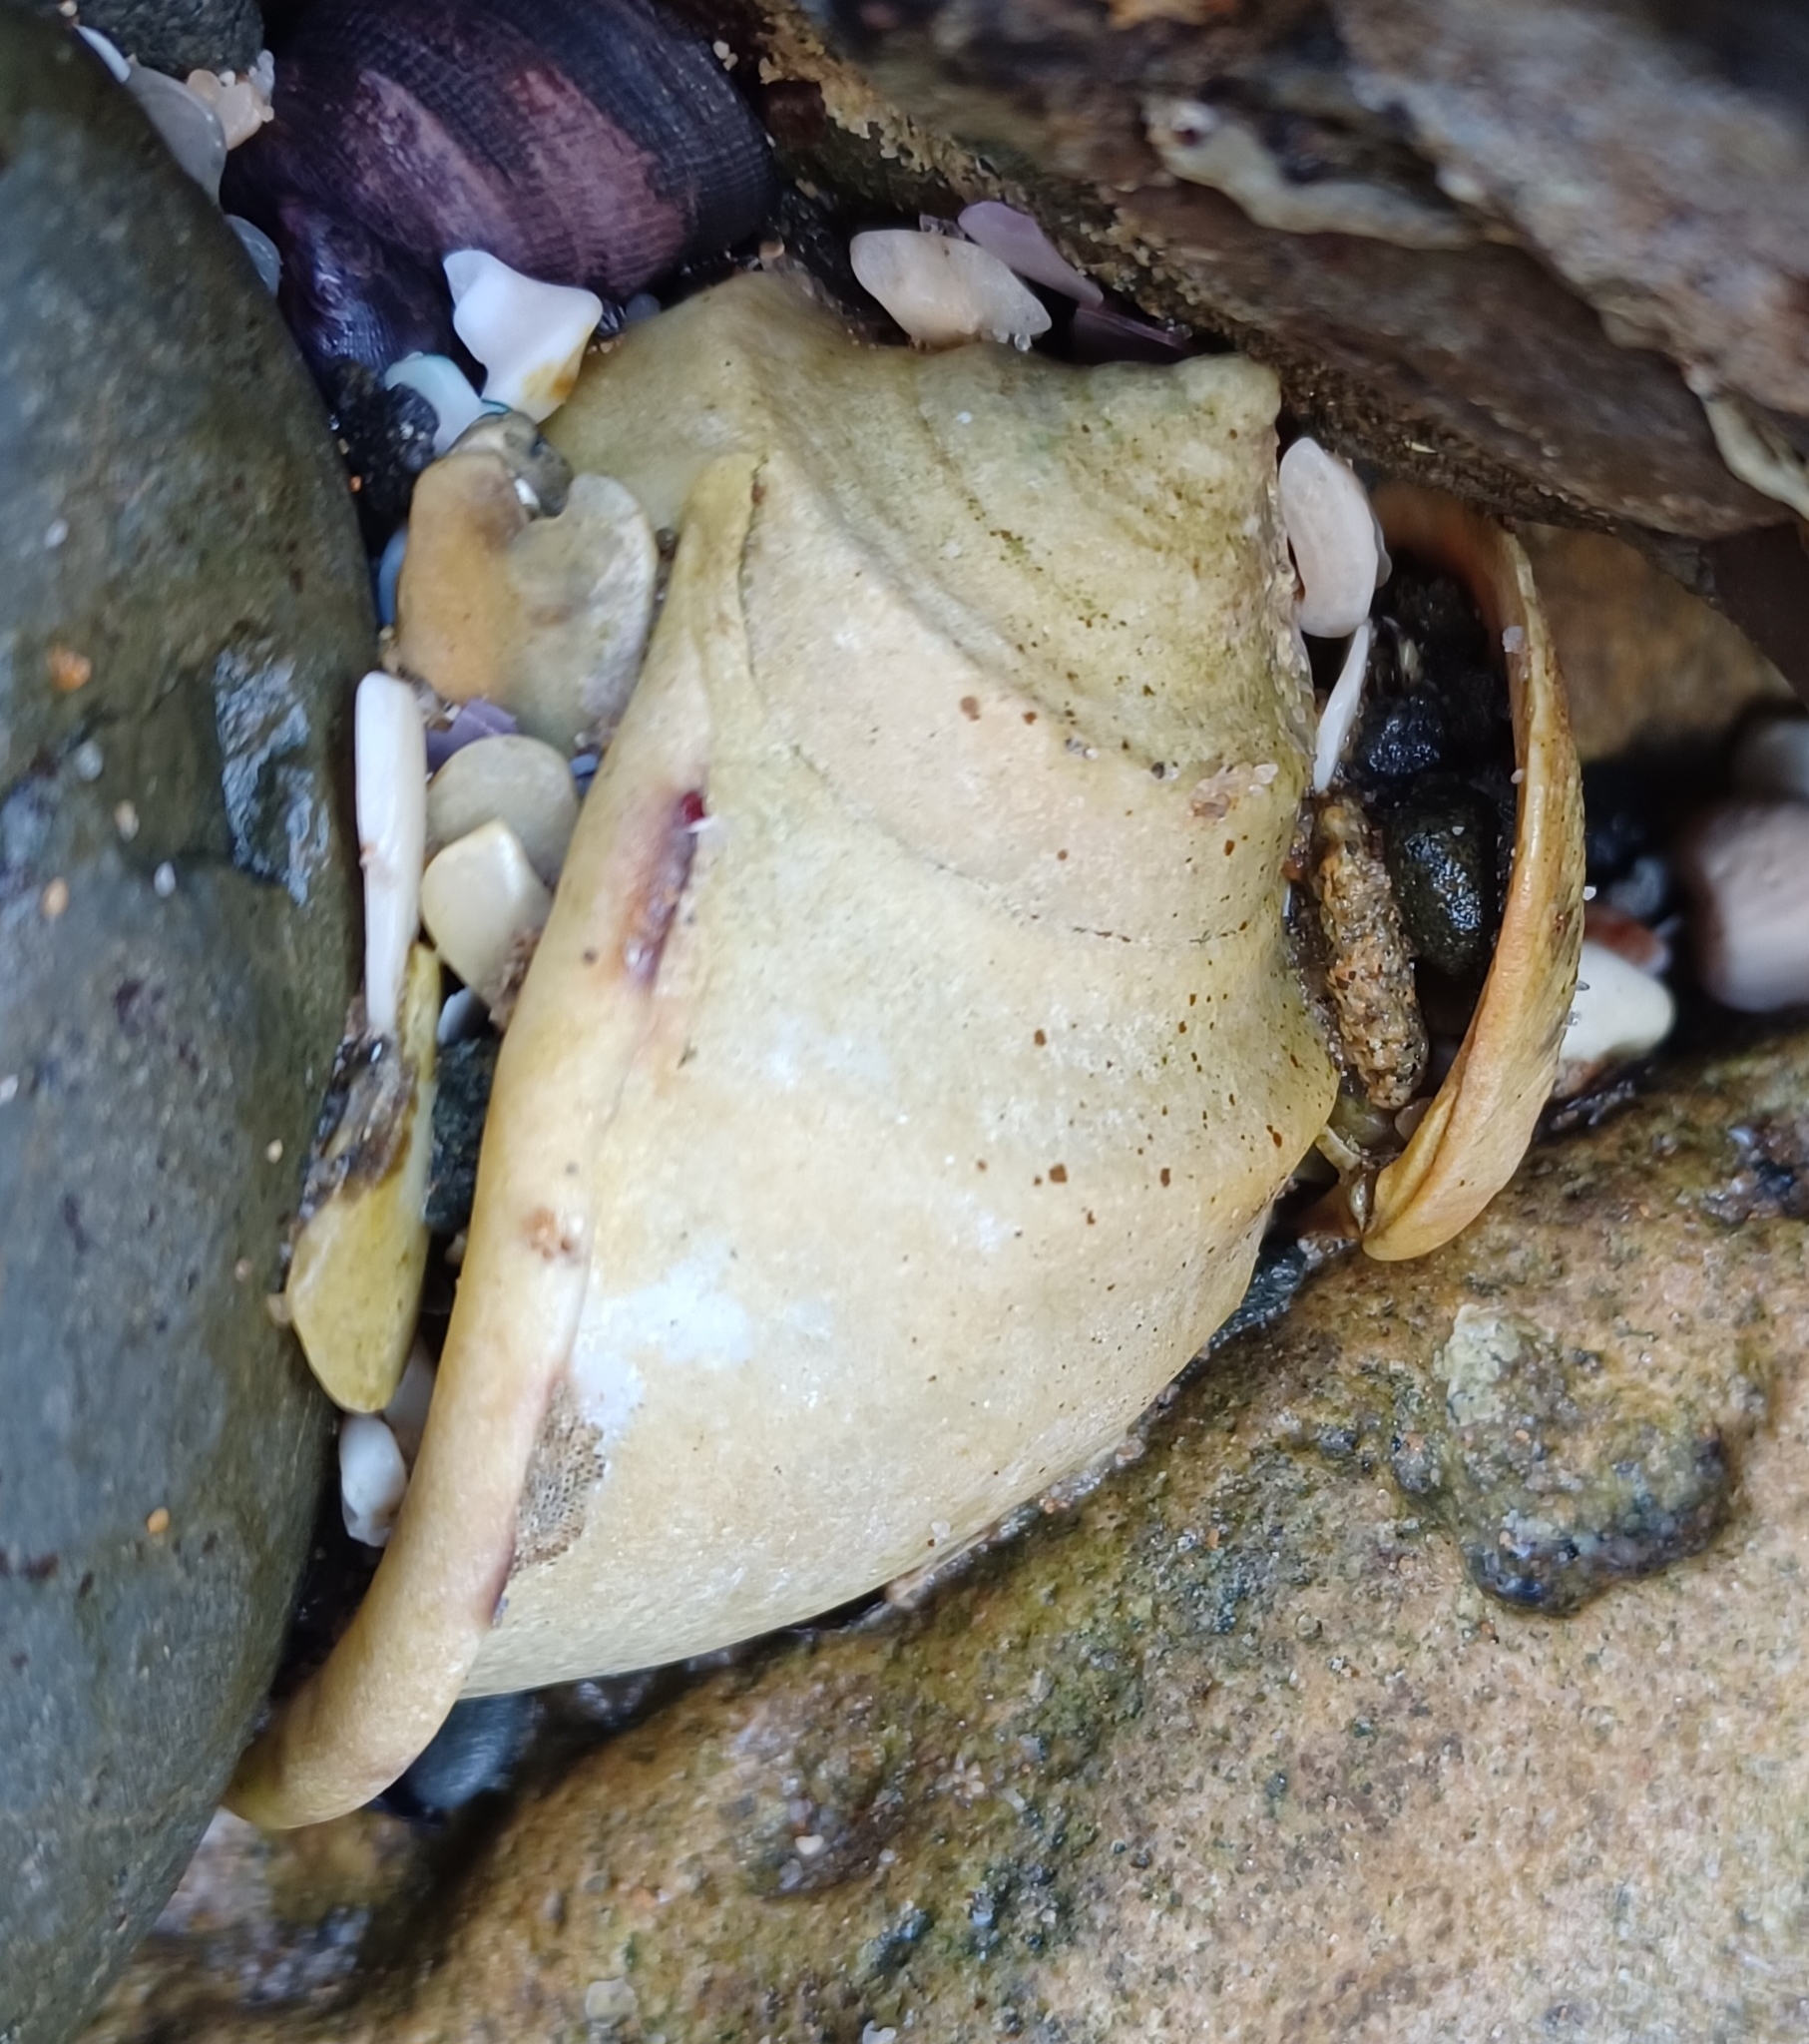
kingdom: Animalia
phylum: Mollusca
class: Gastropoda
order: Littorinimorpha
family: Cassidae
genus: Semicassis
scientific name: Semicassis pyrum
